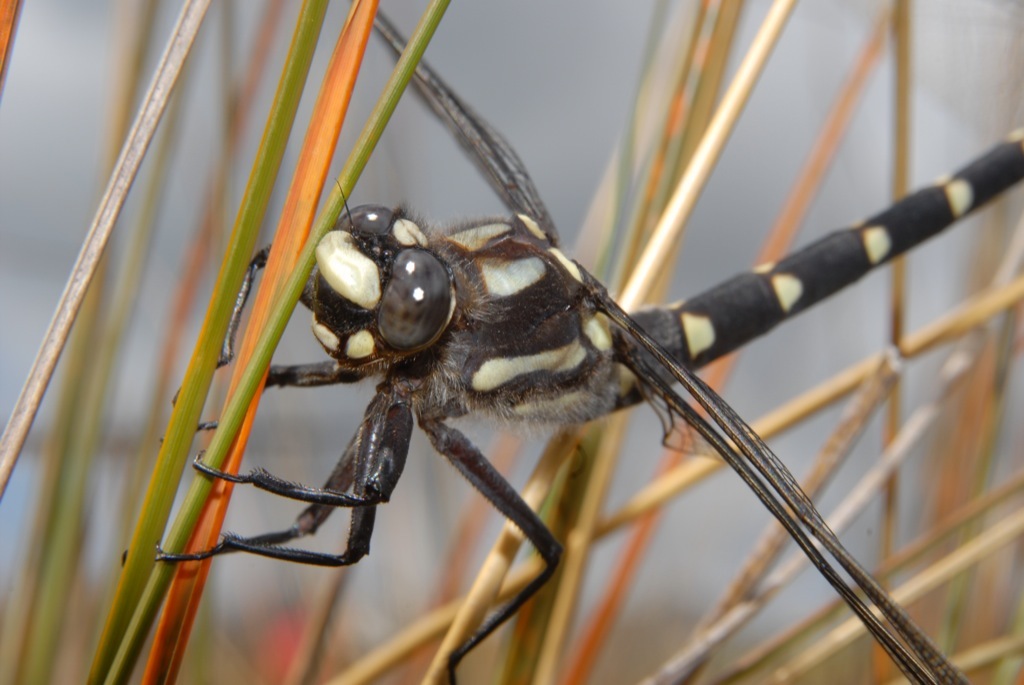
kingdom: Animalia
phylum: Arthropoda
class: Insecta
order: Odonata
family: Petaluridae
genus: Uropetala
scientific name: Uropetala chiltoni
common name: Mountain giant dragonfly
